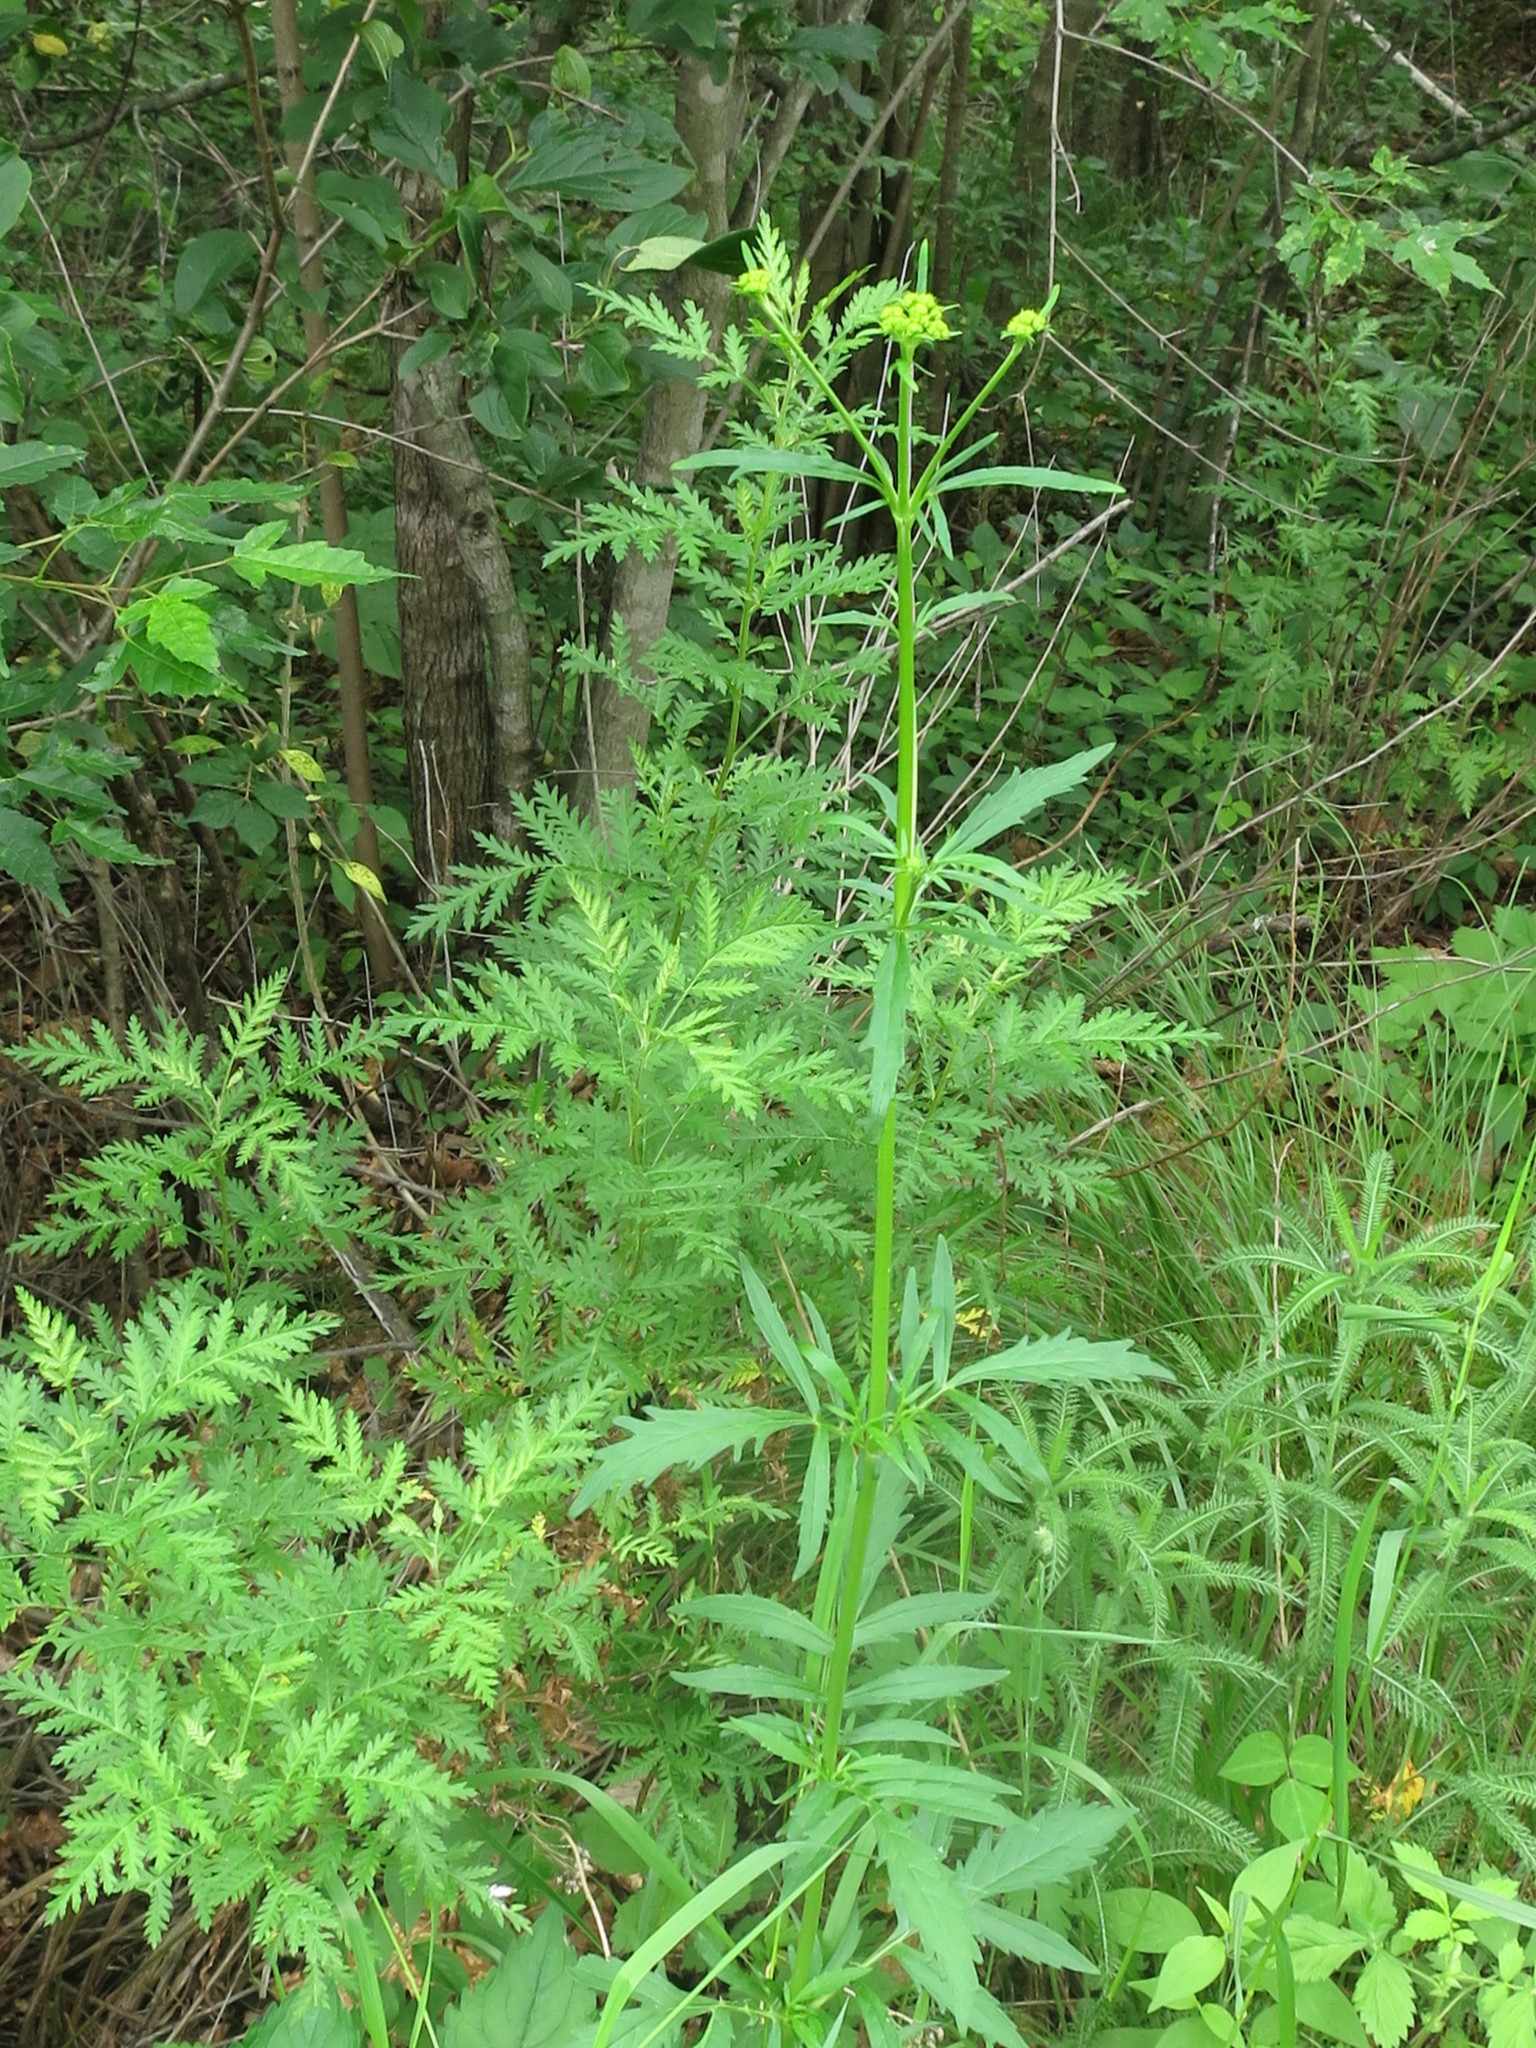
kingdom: Plantae
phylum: Tracheophyta
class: Magnoliopsida
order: Dipsacales
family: Caprifoliaceae
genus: Patrinia
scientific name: Patrinia scabiosifolia
